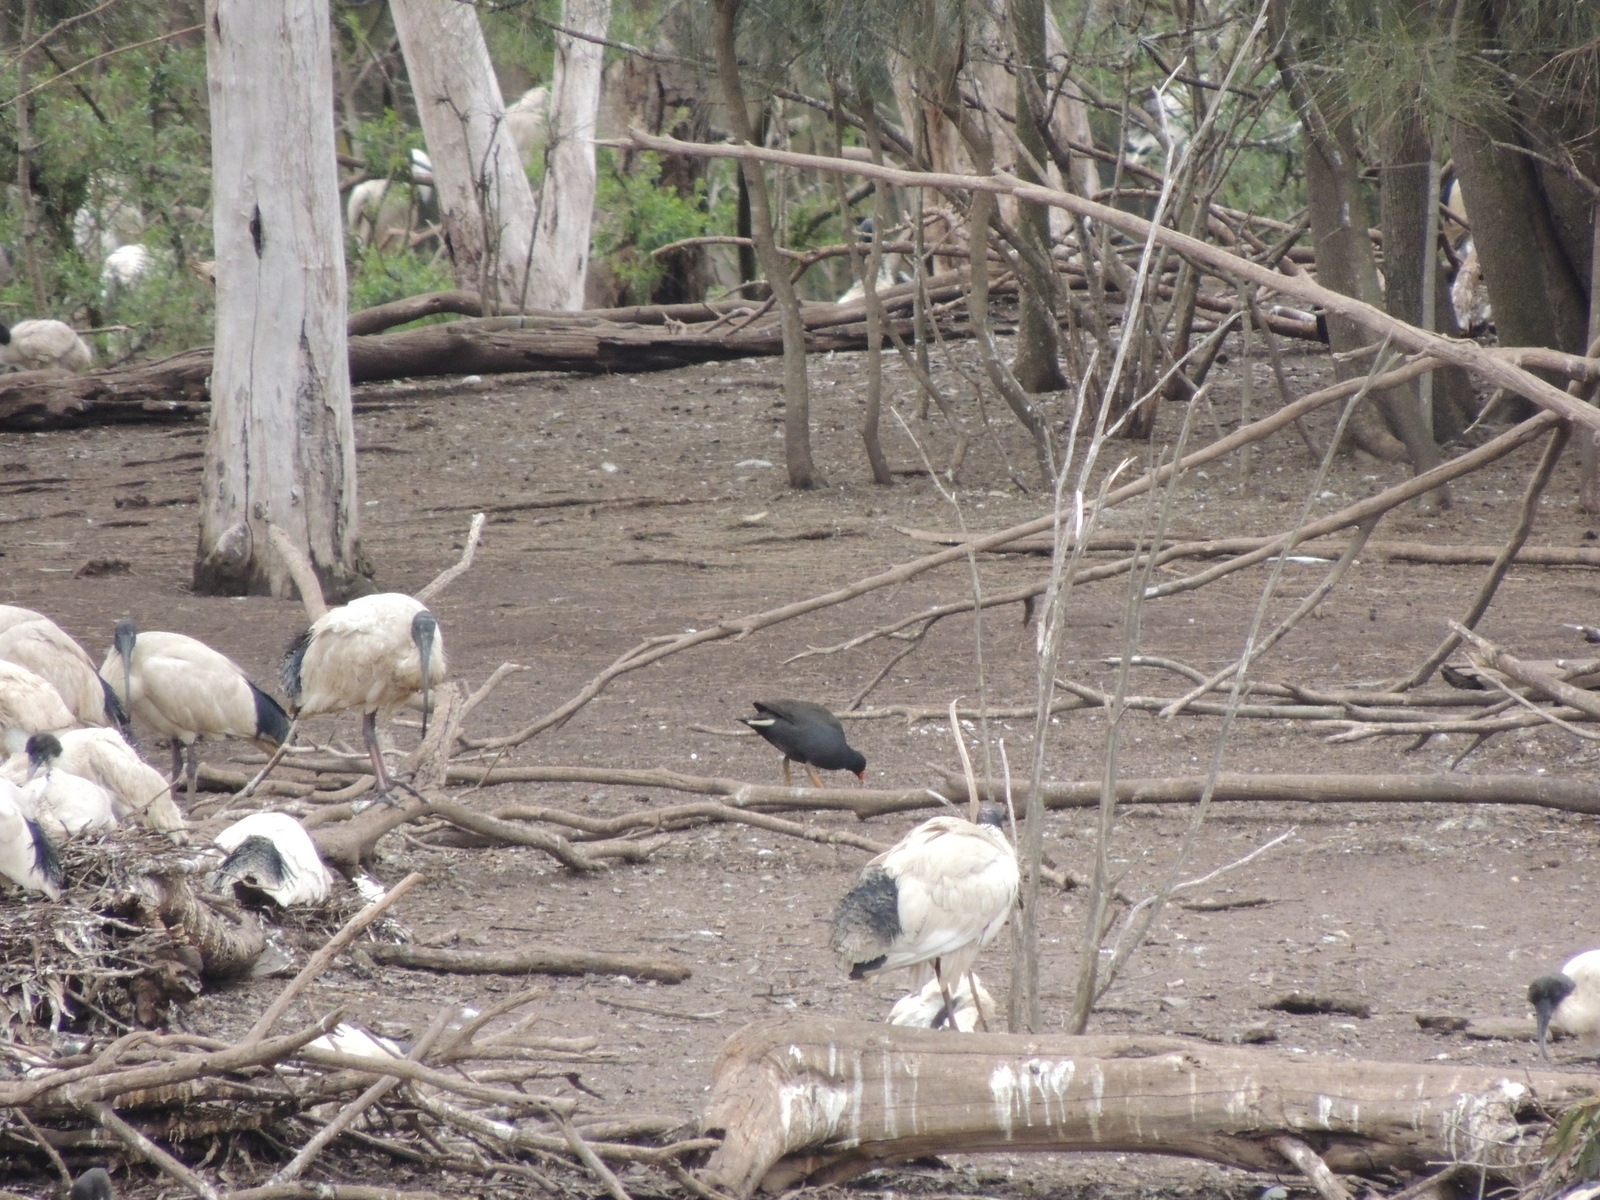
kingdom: Animalia
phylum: Chordata
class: Aves
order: Pelecaniformes
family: Threskiornithidae
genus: Threskiornis
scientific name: Threskiornis molucca
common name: Australian white ibis
